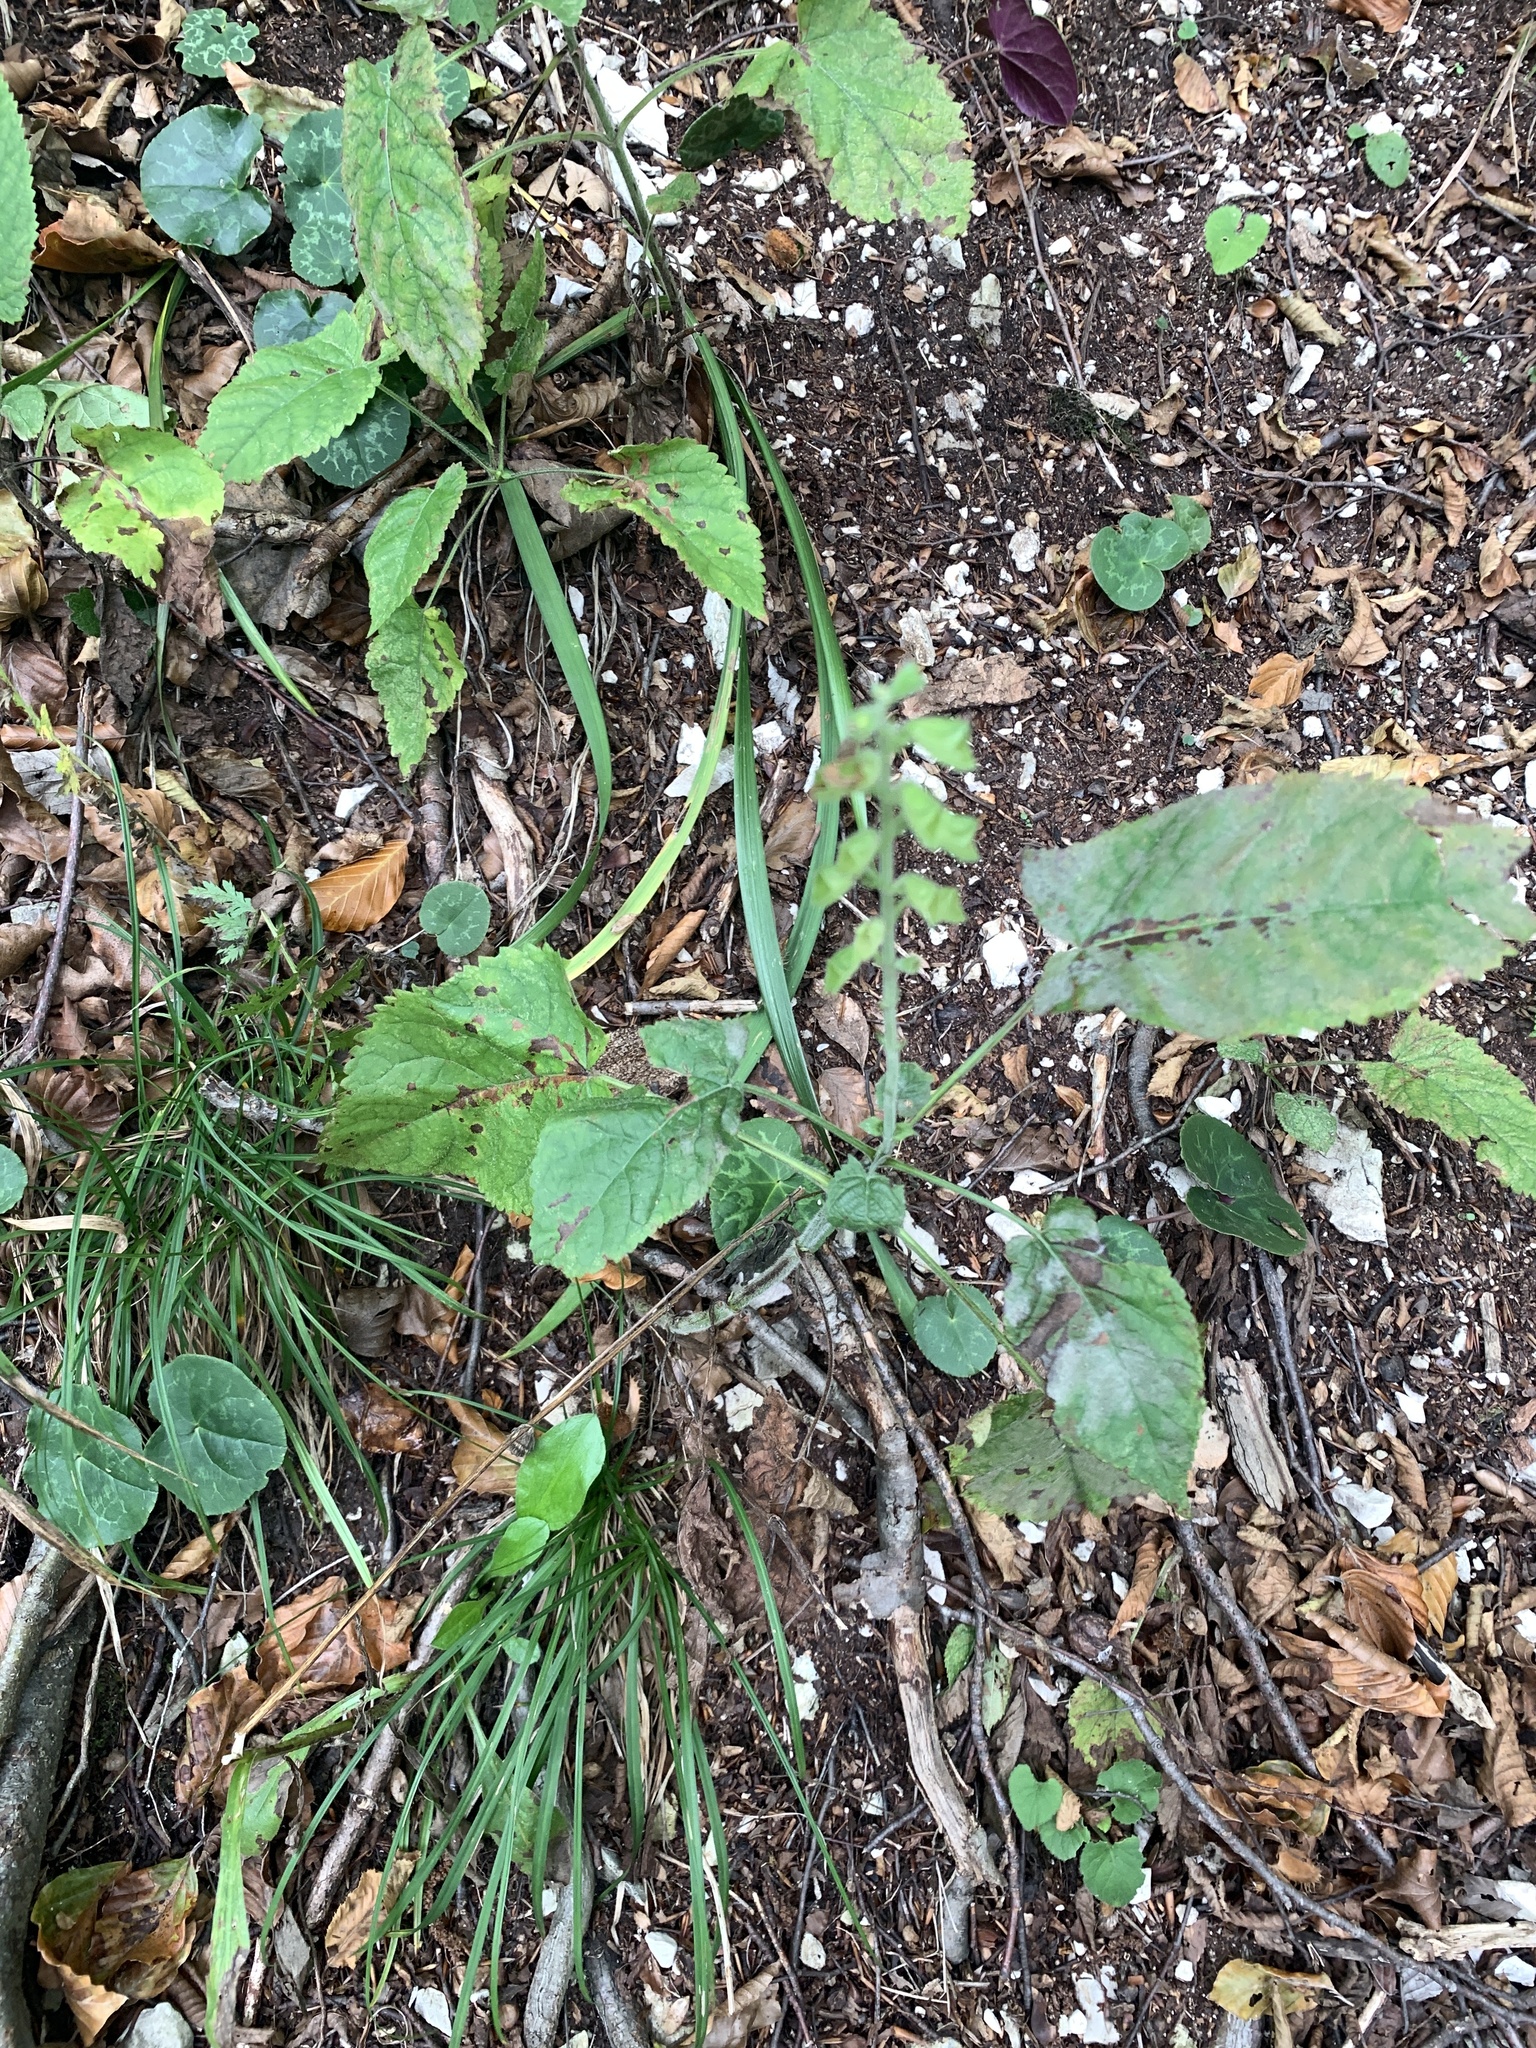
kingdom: Plantae
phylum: Tracheophyta
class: Magnoliopsida
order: Lamiales
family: Lamiaceae
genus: Salvia
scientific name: Salvia glutinosa
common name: Sticky clary
